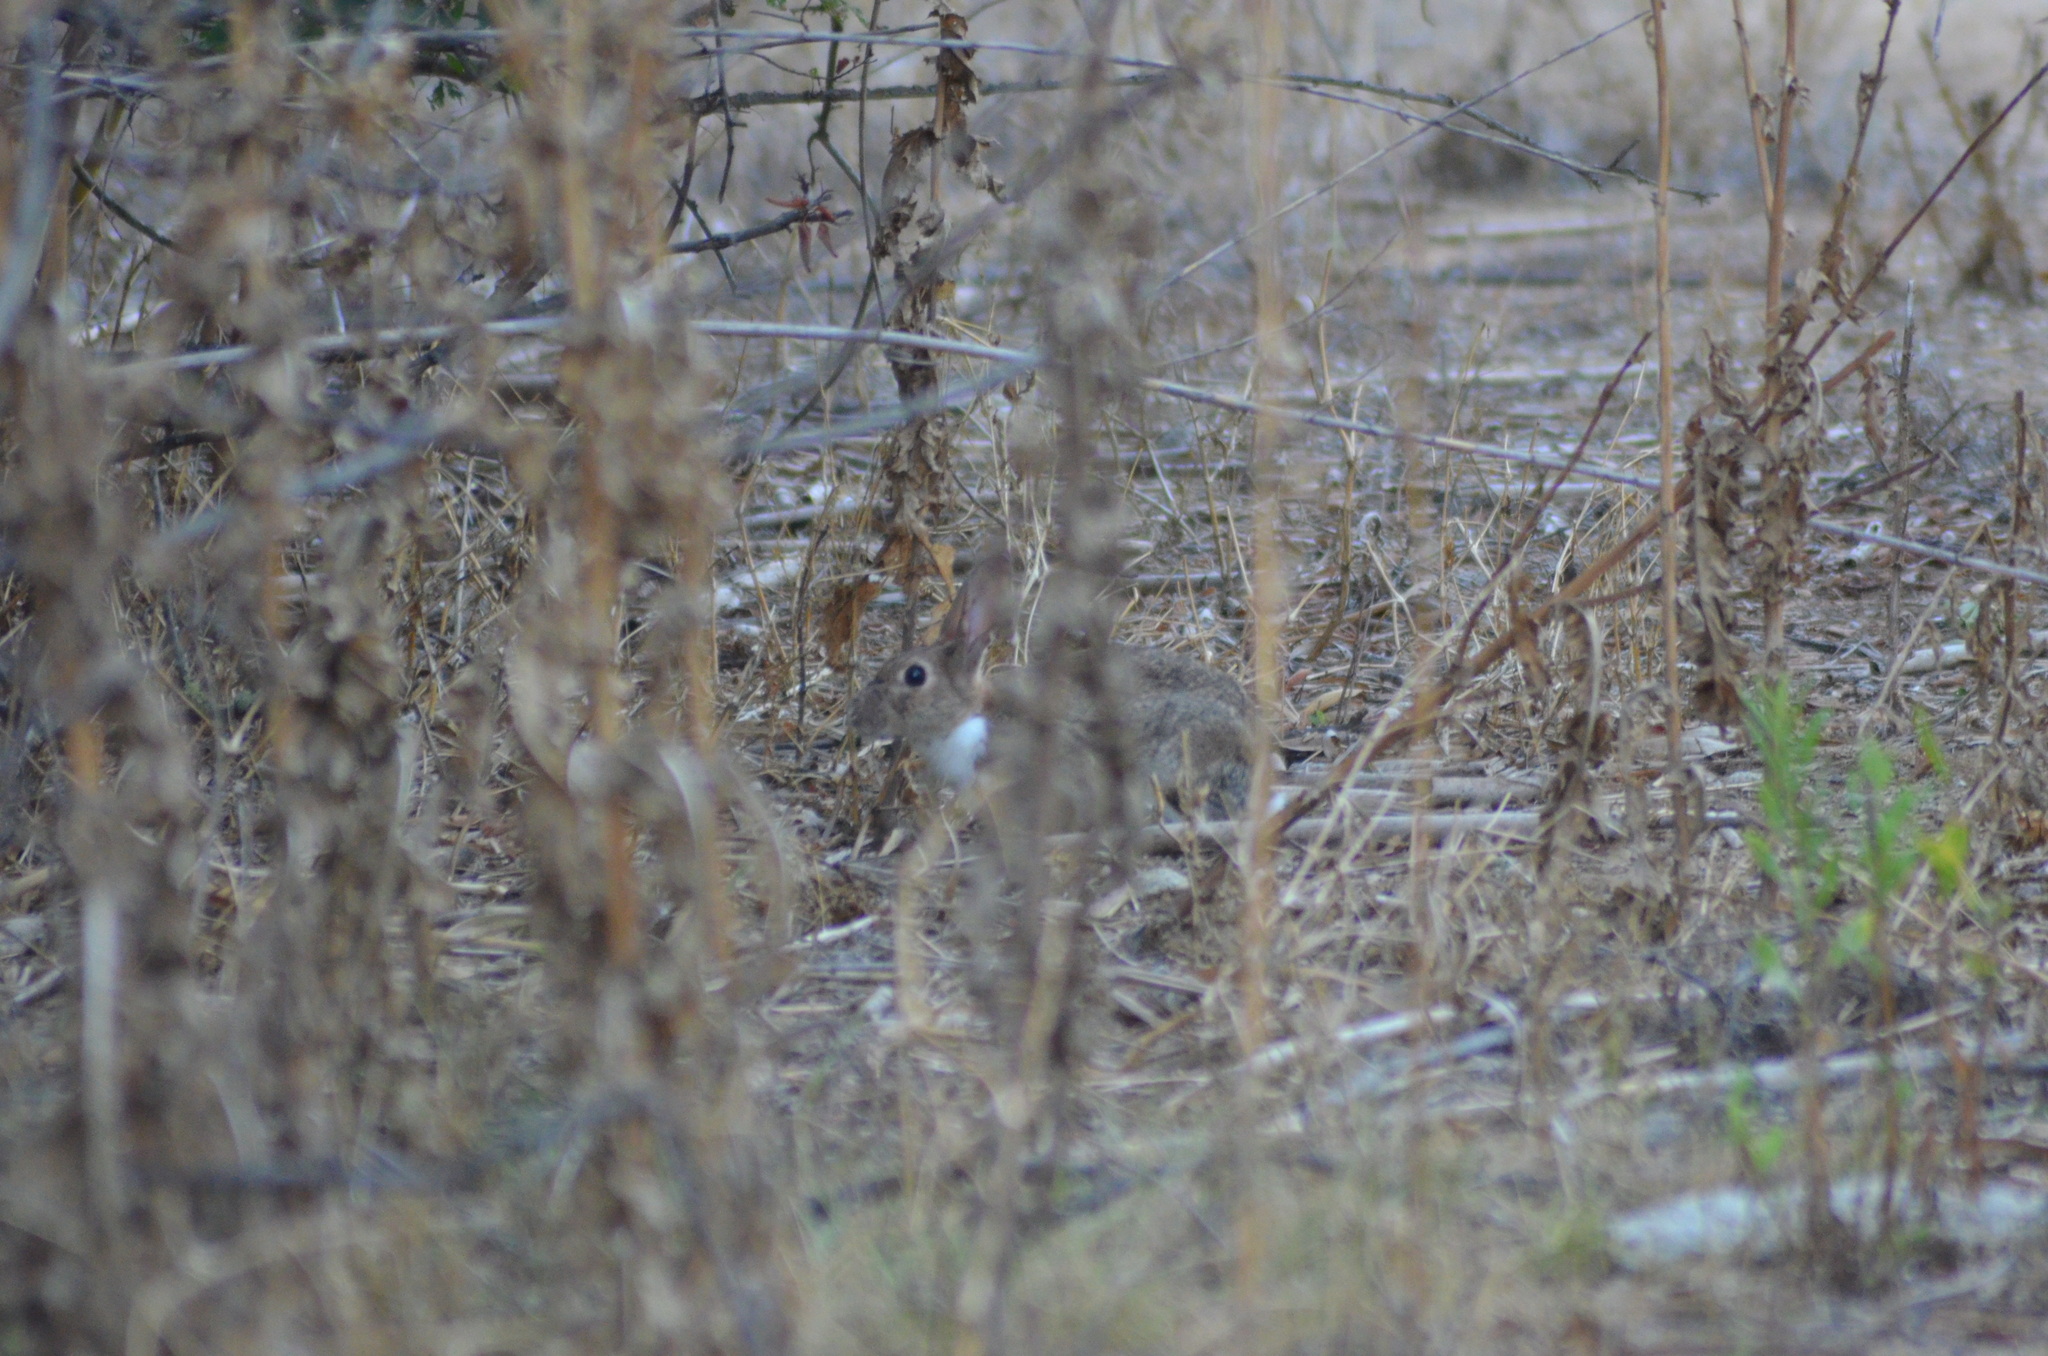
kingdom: Animalia
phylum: Chordata
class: Mammalia
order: Lagomorpha
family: Leporidae
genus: Oryctolagus
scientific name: Oryctolagus cuniculus
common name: European rabbit
